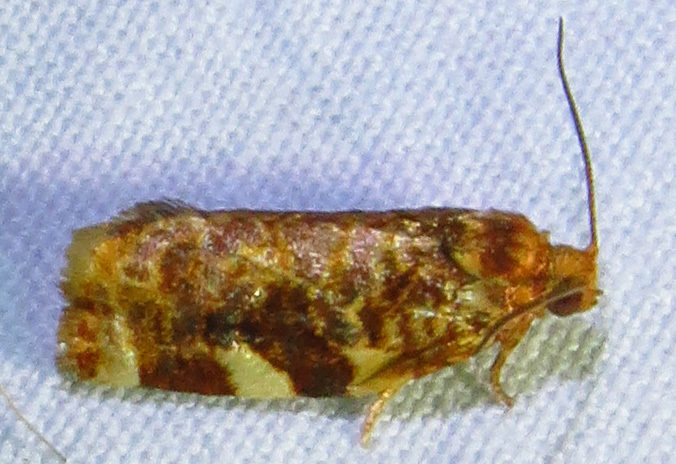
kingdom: Animalia
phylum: Arthropoda
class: Insecta
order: Lepidoptera
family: Tortricidae
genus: Archips
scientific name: Archips argyrospila
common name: Fruit-tree leafroller moth
